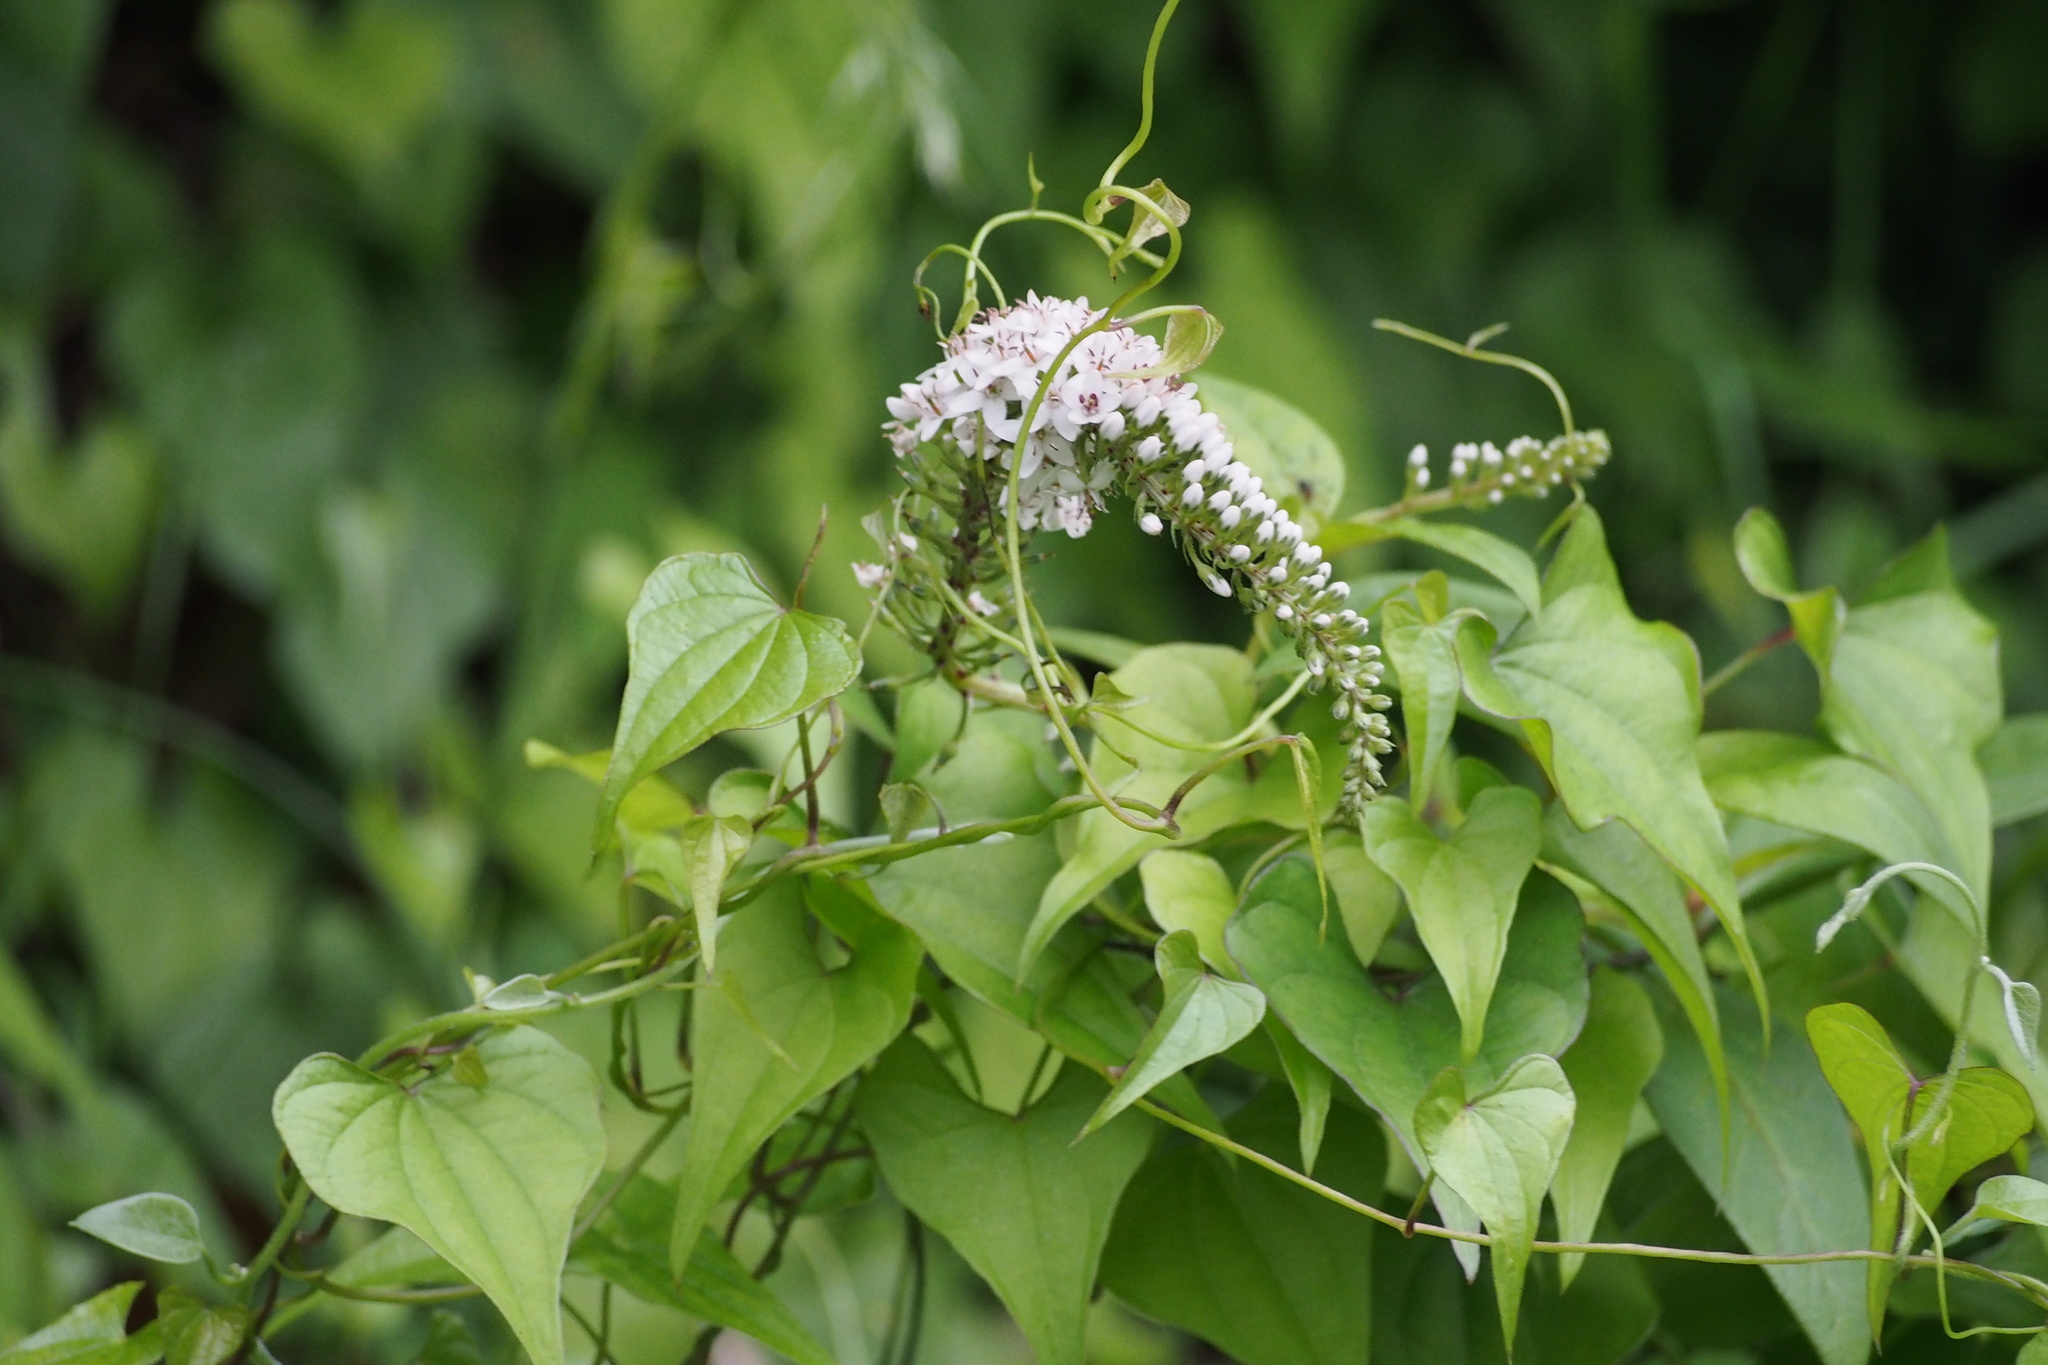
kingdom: Plantae
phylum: Tracheophyta
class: Magnoliopsida
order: Ericales
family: Primulaceae
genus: Lysimachia
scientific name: Lysimachia clethroides
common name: Gooseneck loosestrife
